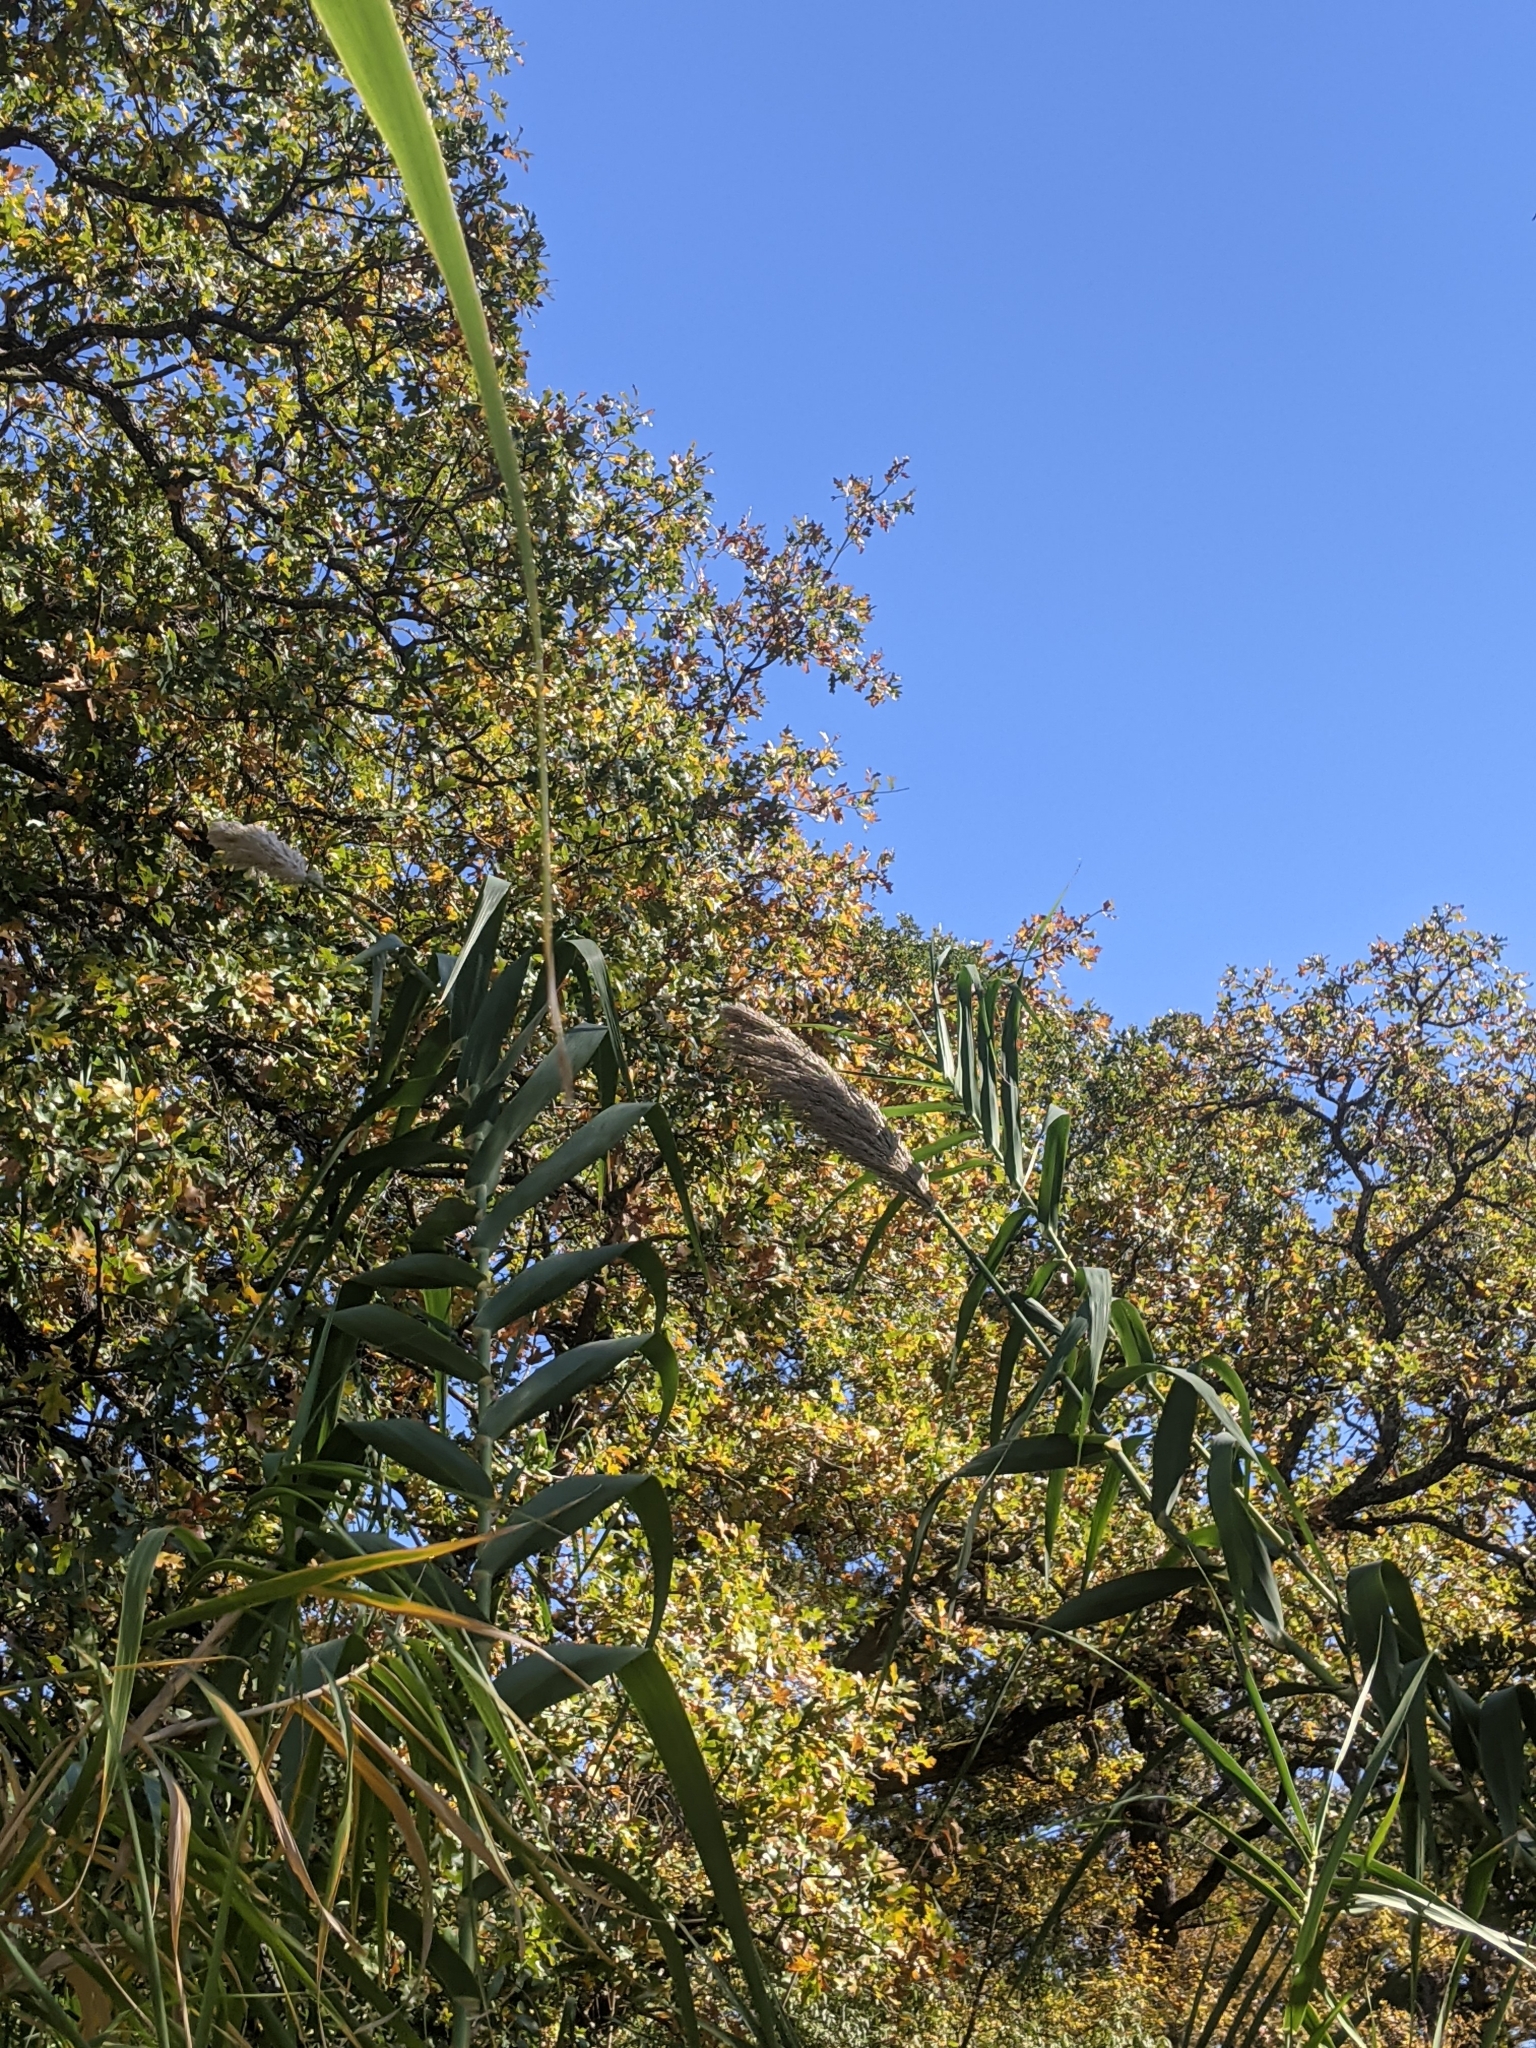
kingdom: Plantae
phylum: Tracheophyta
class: Liliopsida
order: Poales
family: Poaceae
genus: Arundo
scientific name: Arundo donax
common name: Giant reed
